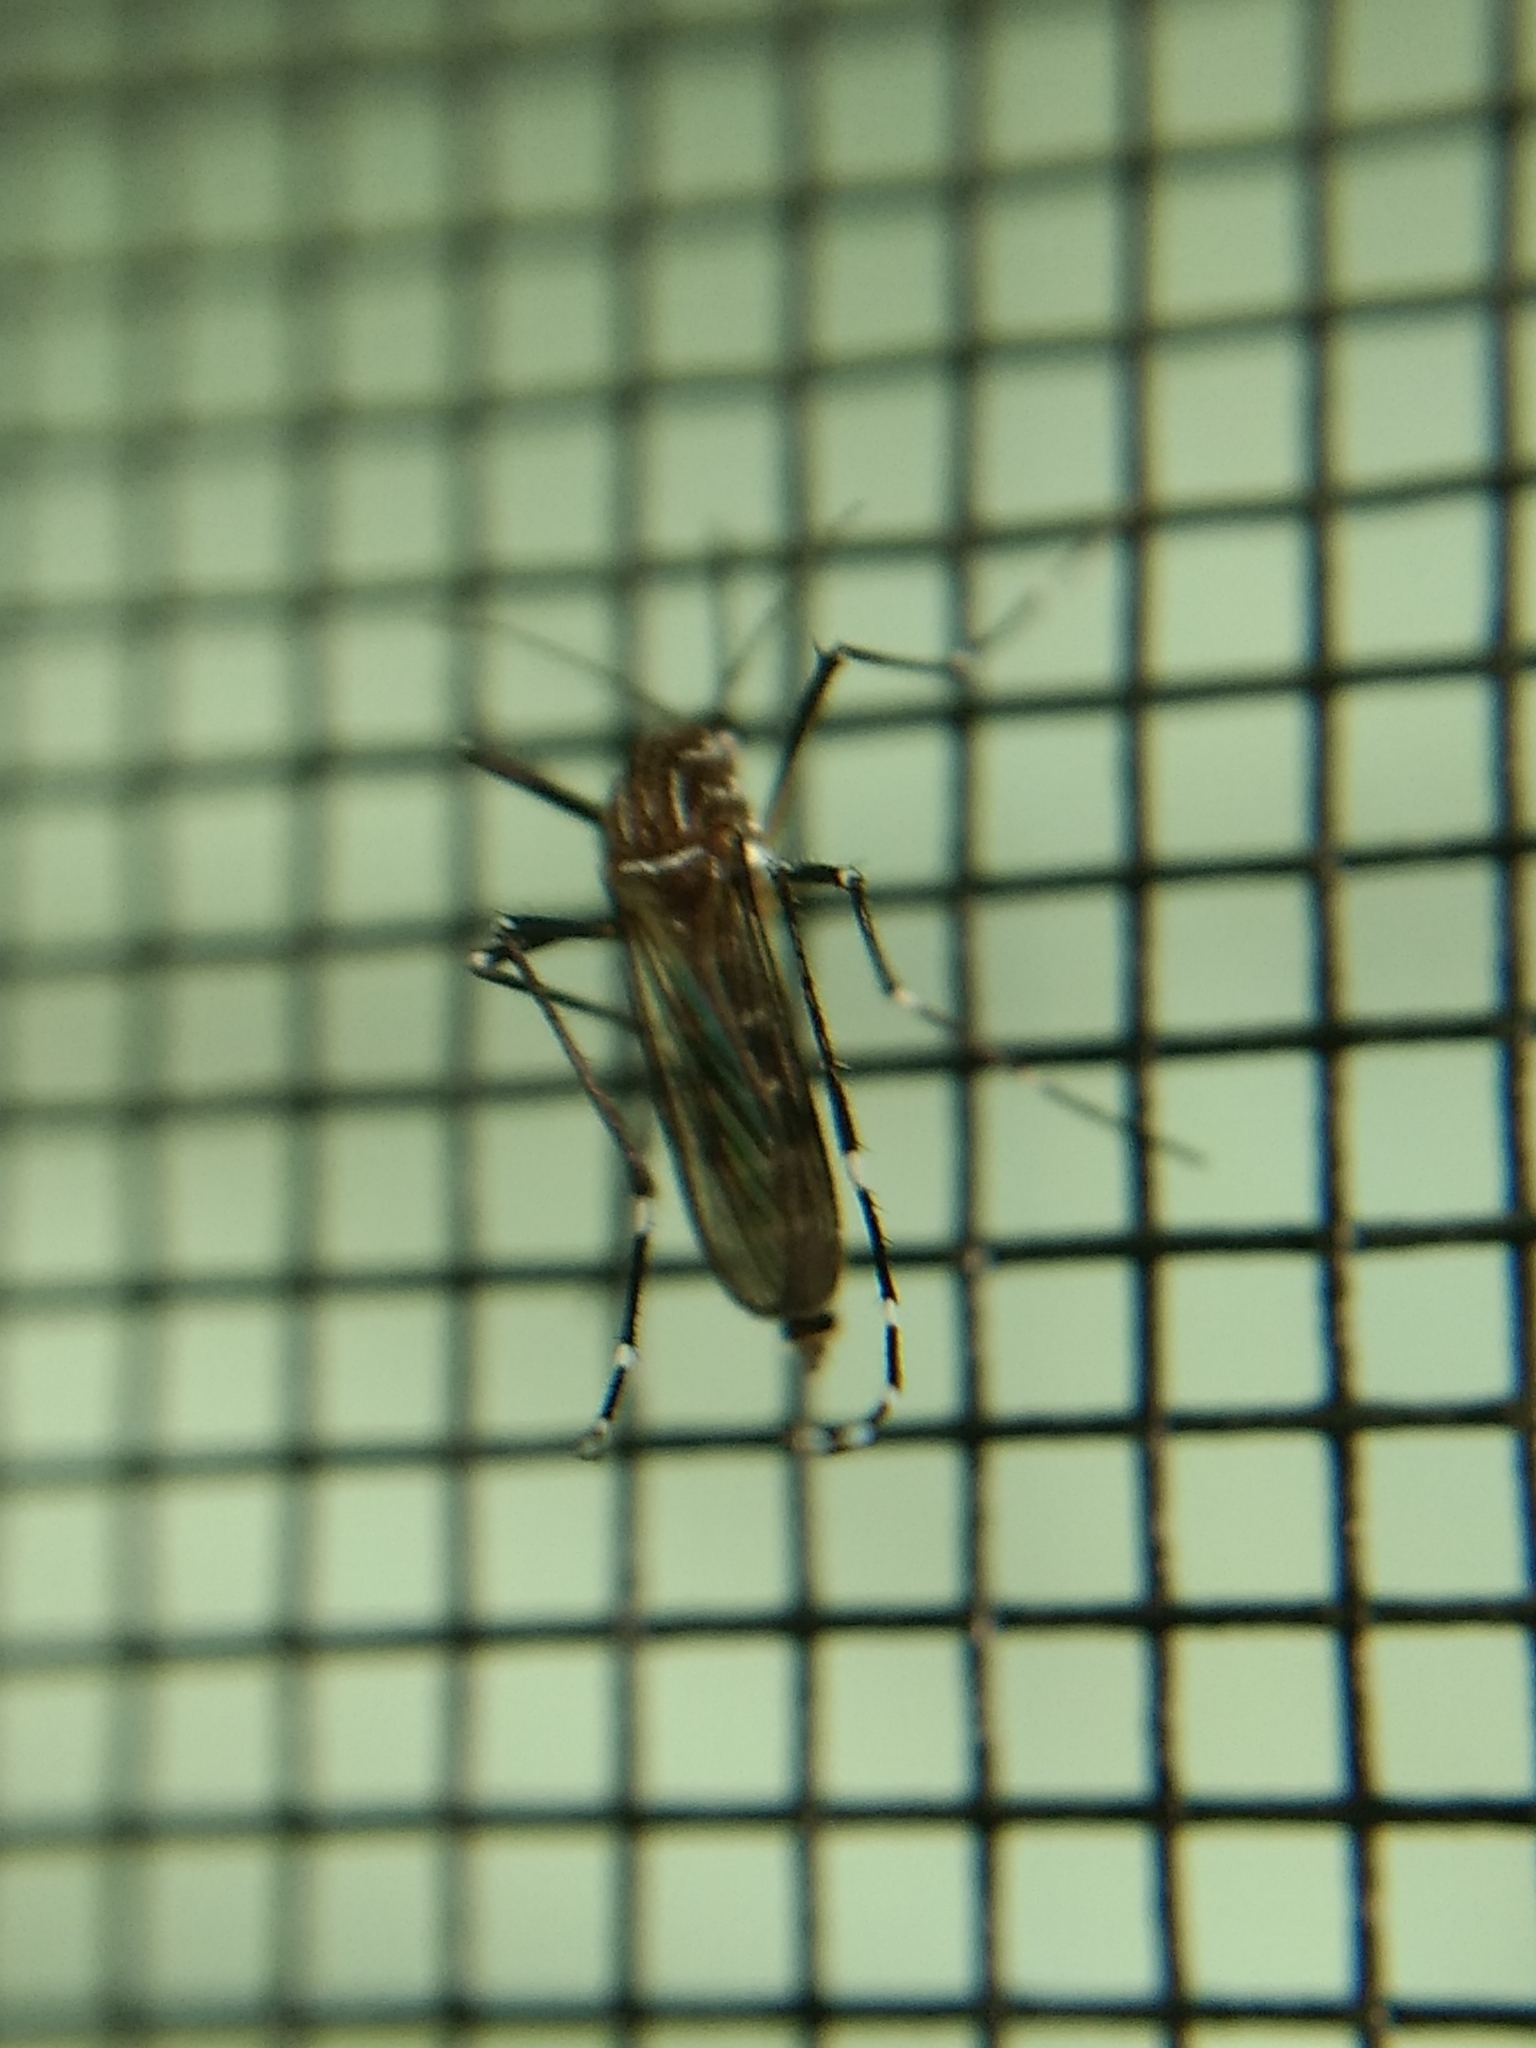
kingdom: Animalia
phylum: Arthropoda
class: Insecta
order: Diptera
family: Culicidae
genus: Aedes
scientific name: Aedes aegypti
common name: Yellow fever mosquito
